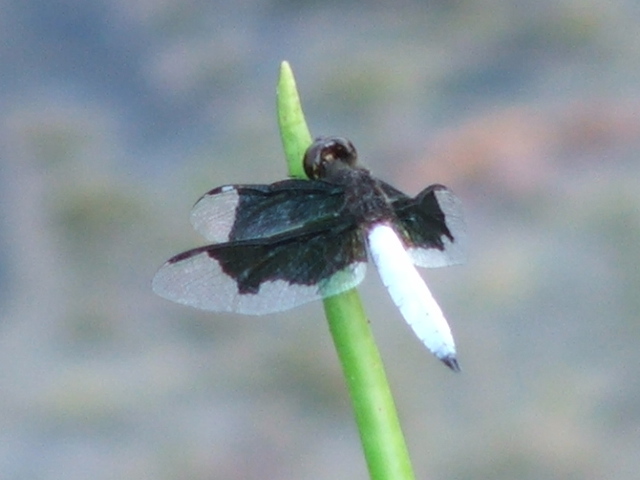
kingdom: Animalia
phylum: Arthropoda
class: Insecta
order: Odonata
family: Libellulidae
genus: Palpopleura
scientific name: Palpopleura lucia
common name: Lucia widow
